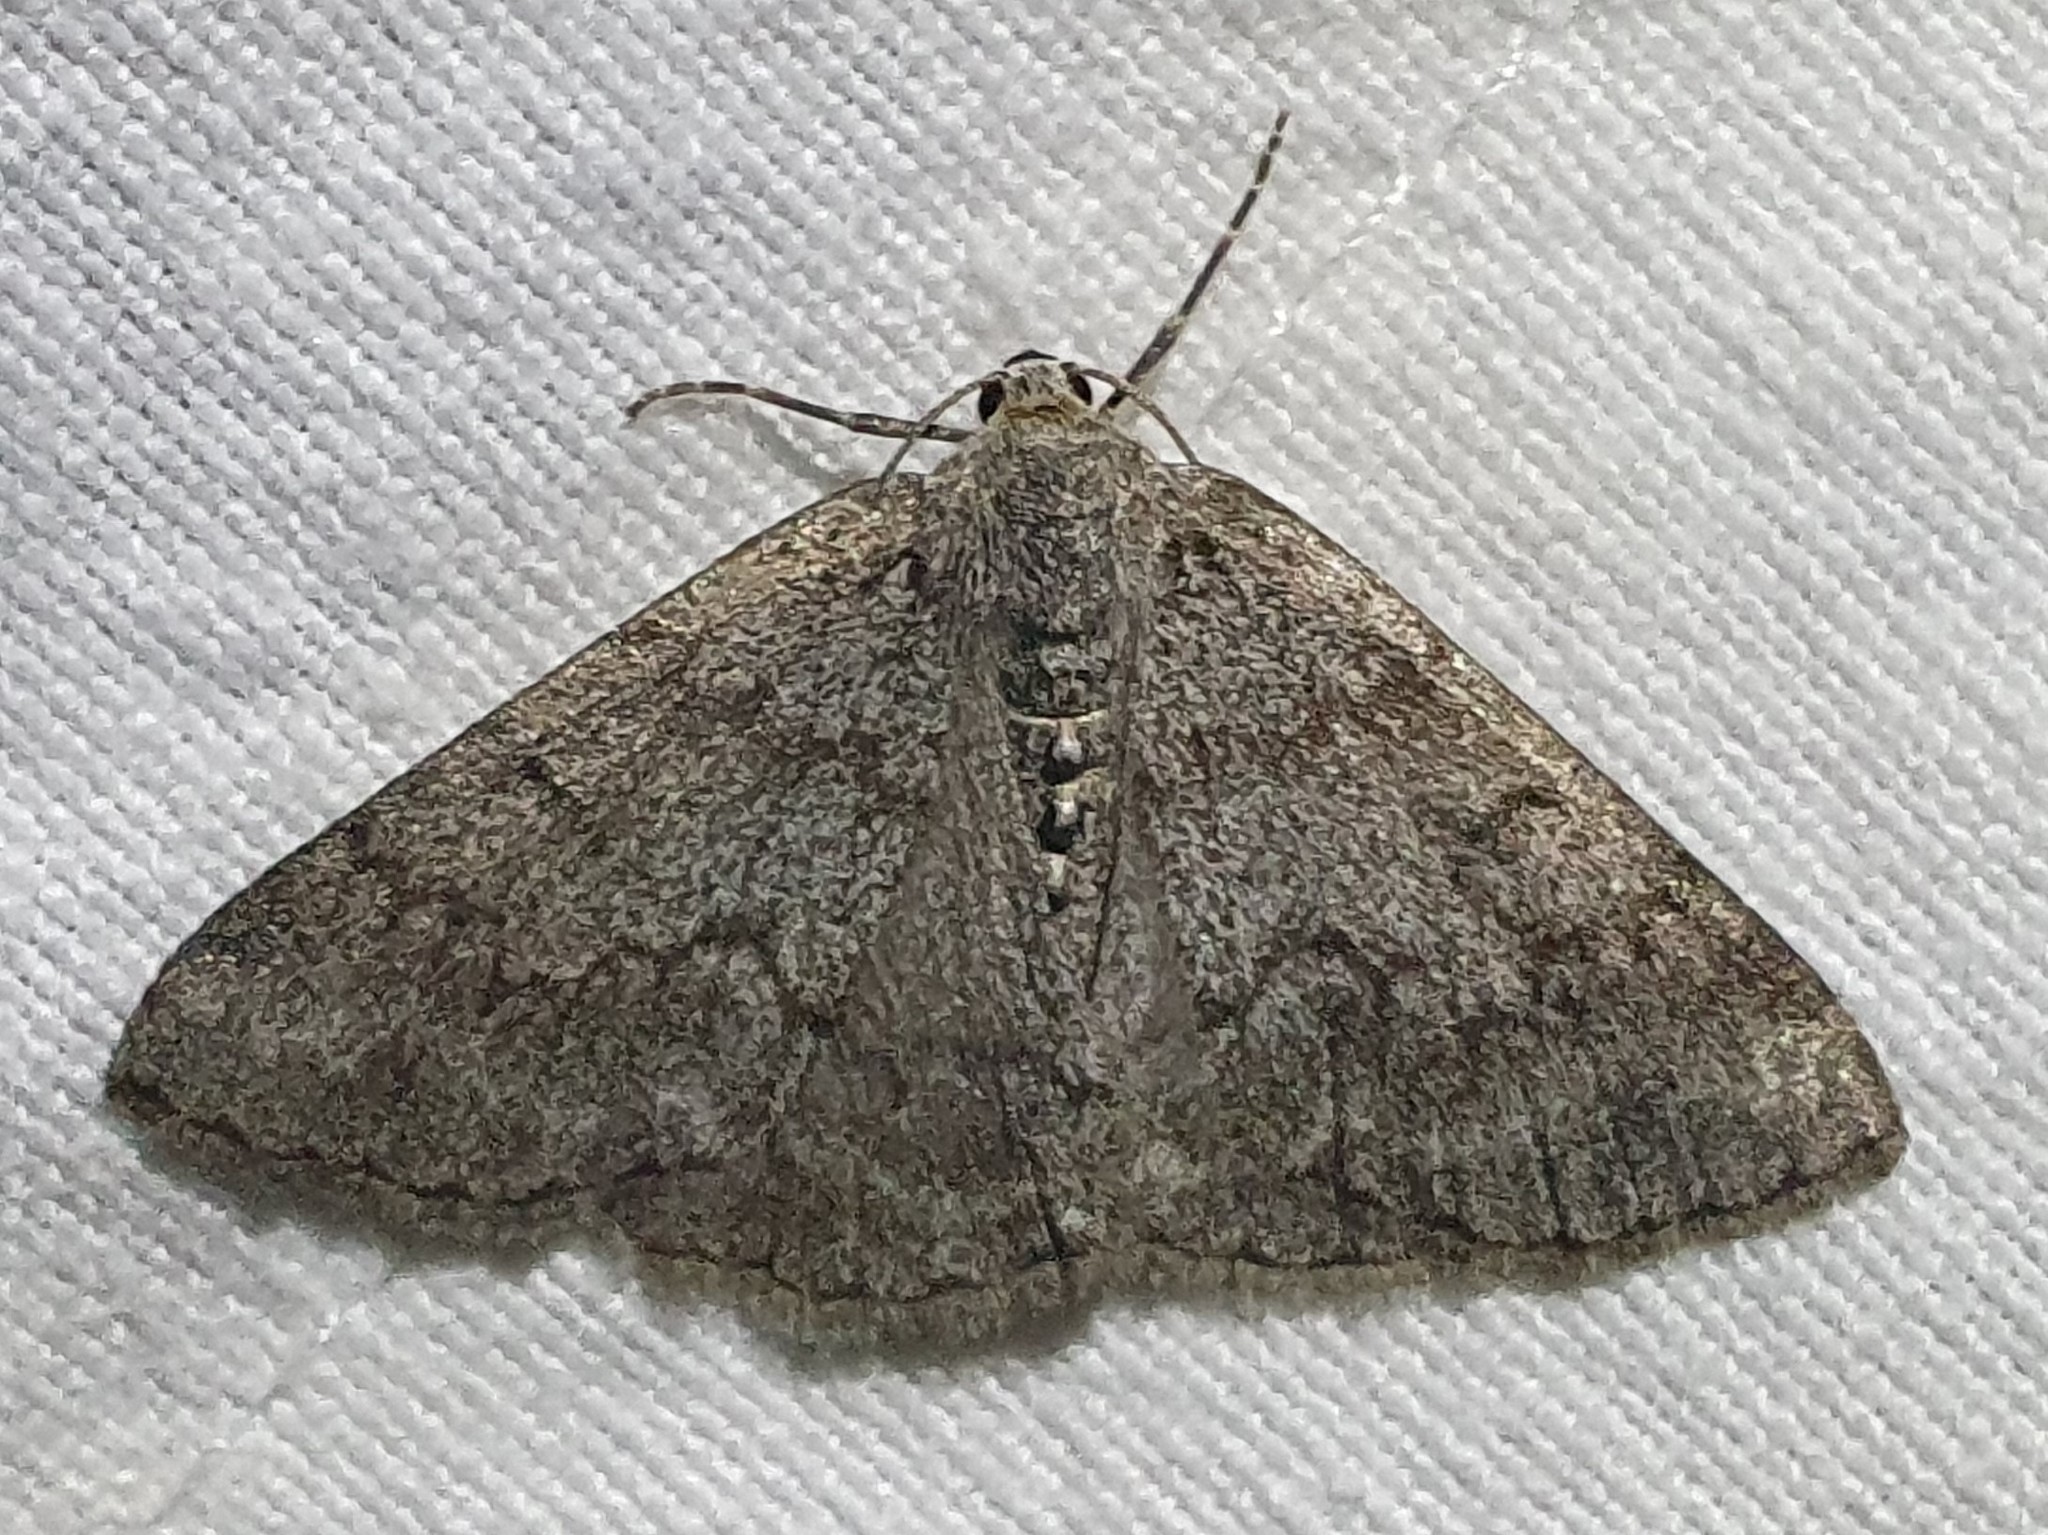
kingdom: Animalia
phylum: Arthropoda
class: Insecta
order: Lepidoptera
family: Geometridae
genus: Pseudoterpna
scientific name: Pseudoterpna coronillaria
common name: Jersey emerald
